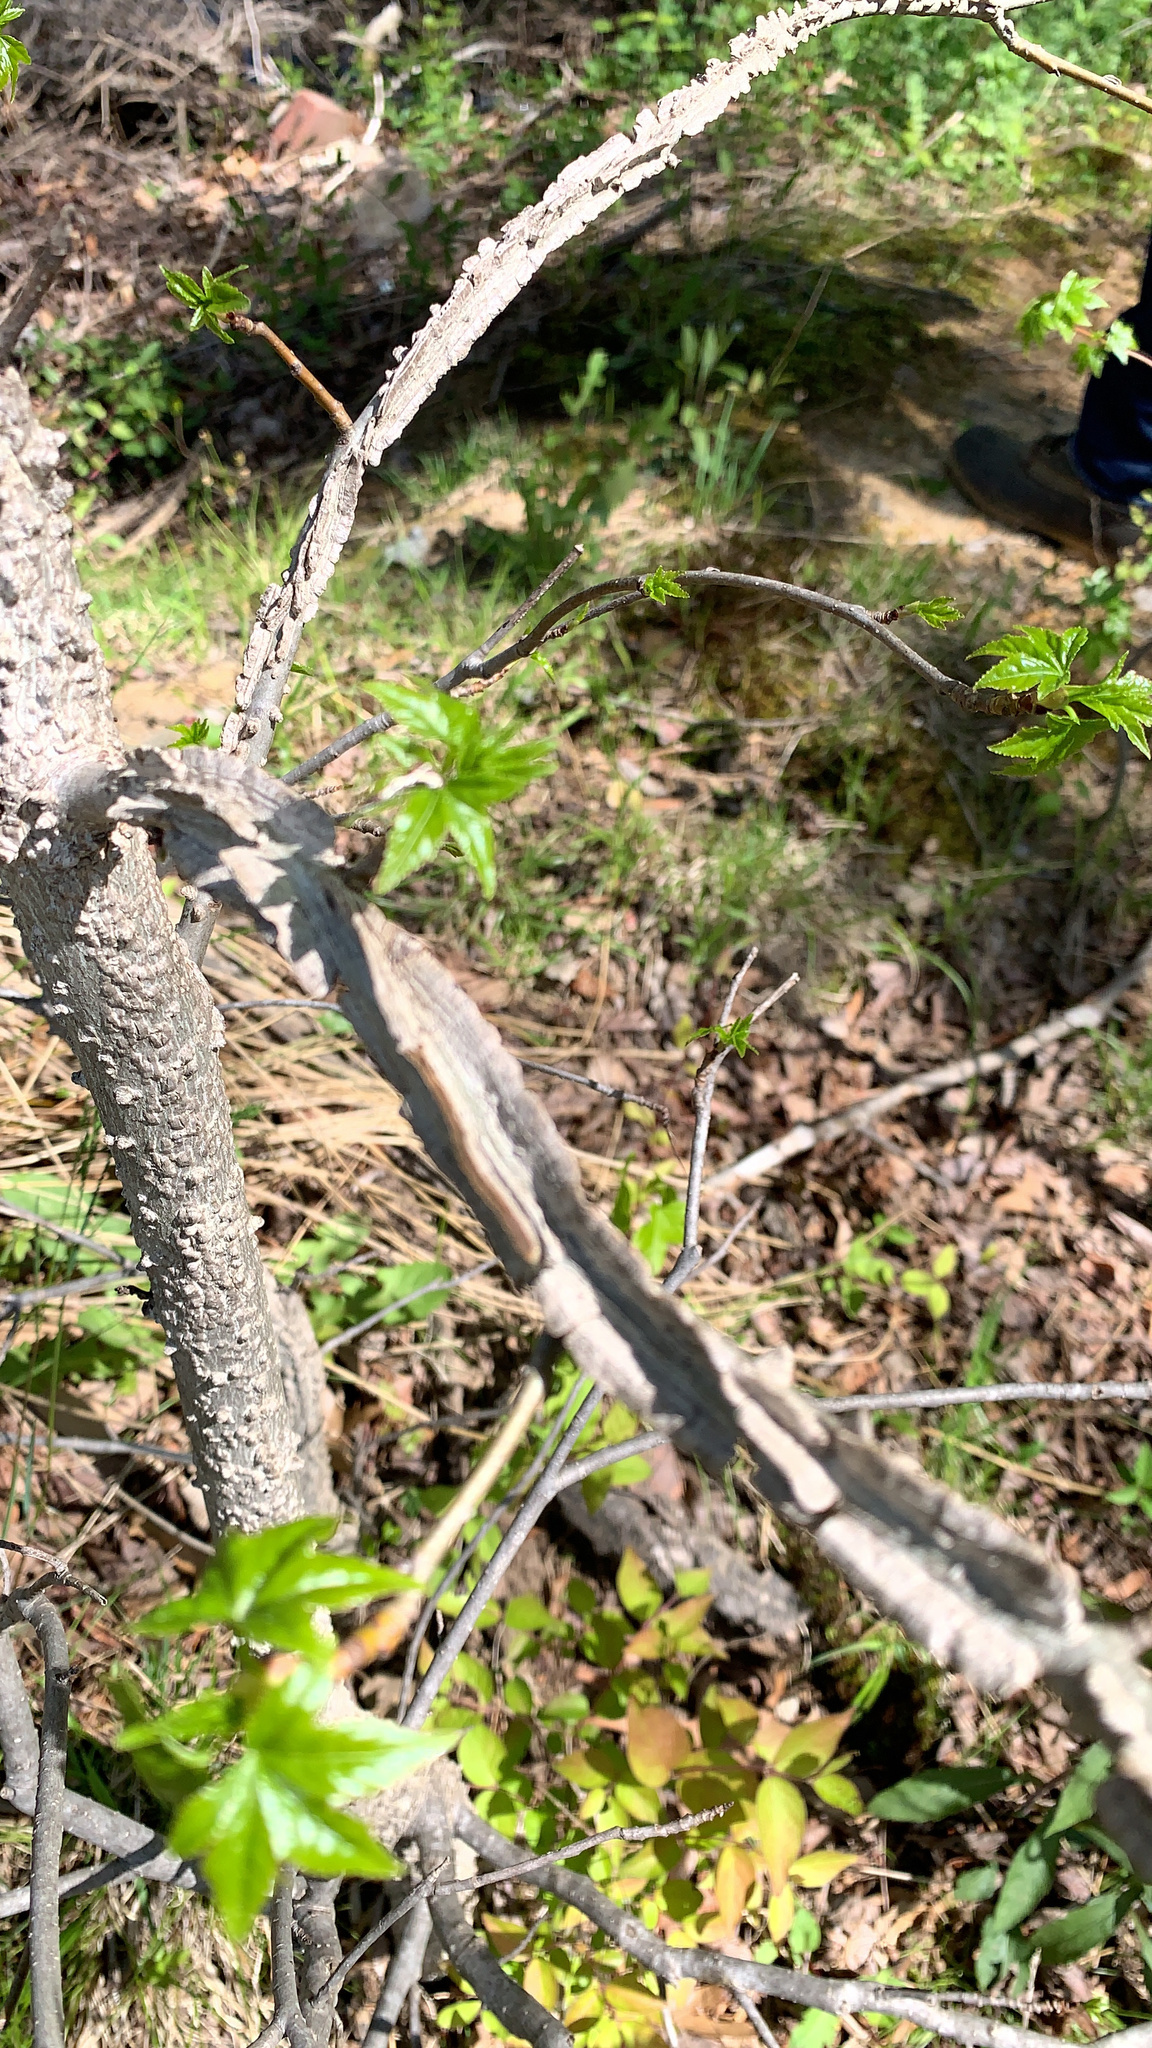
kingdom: Plantae
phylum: Tracheophyta
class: Magnoliopsida
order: Saxifragales
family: Altingiaceae
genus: Liquidambar
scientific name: Liquidambar styraciflua
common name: Sweet gum
